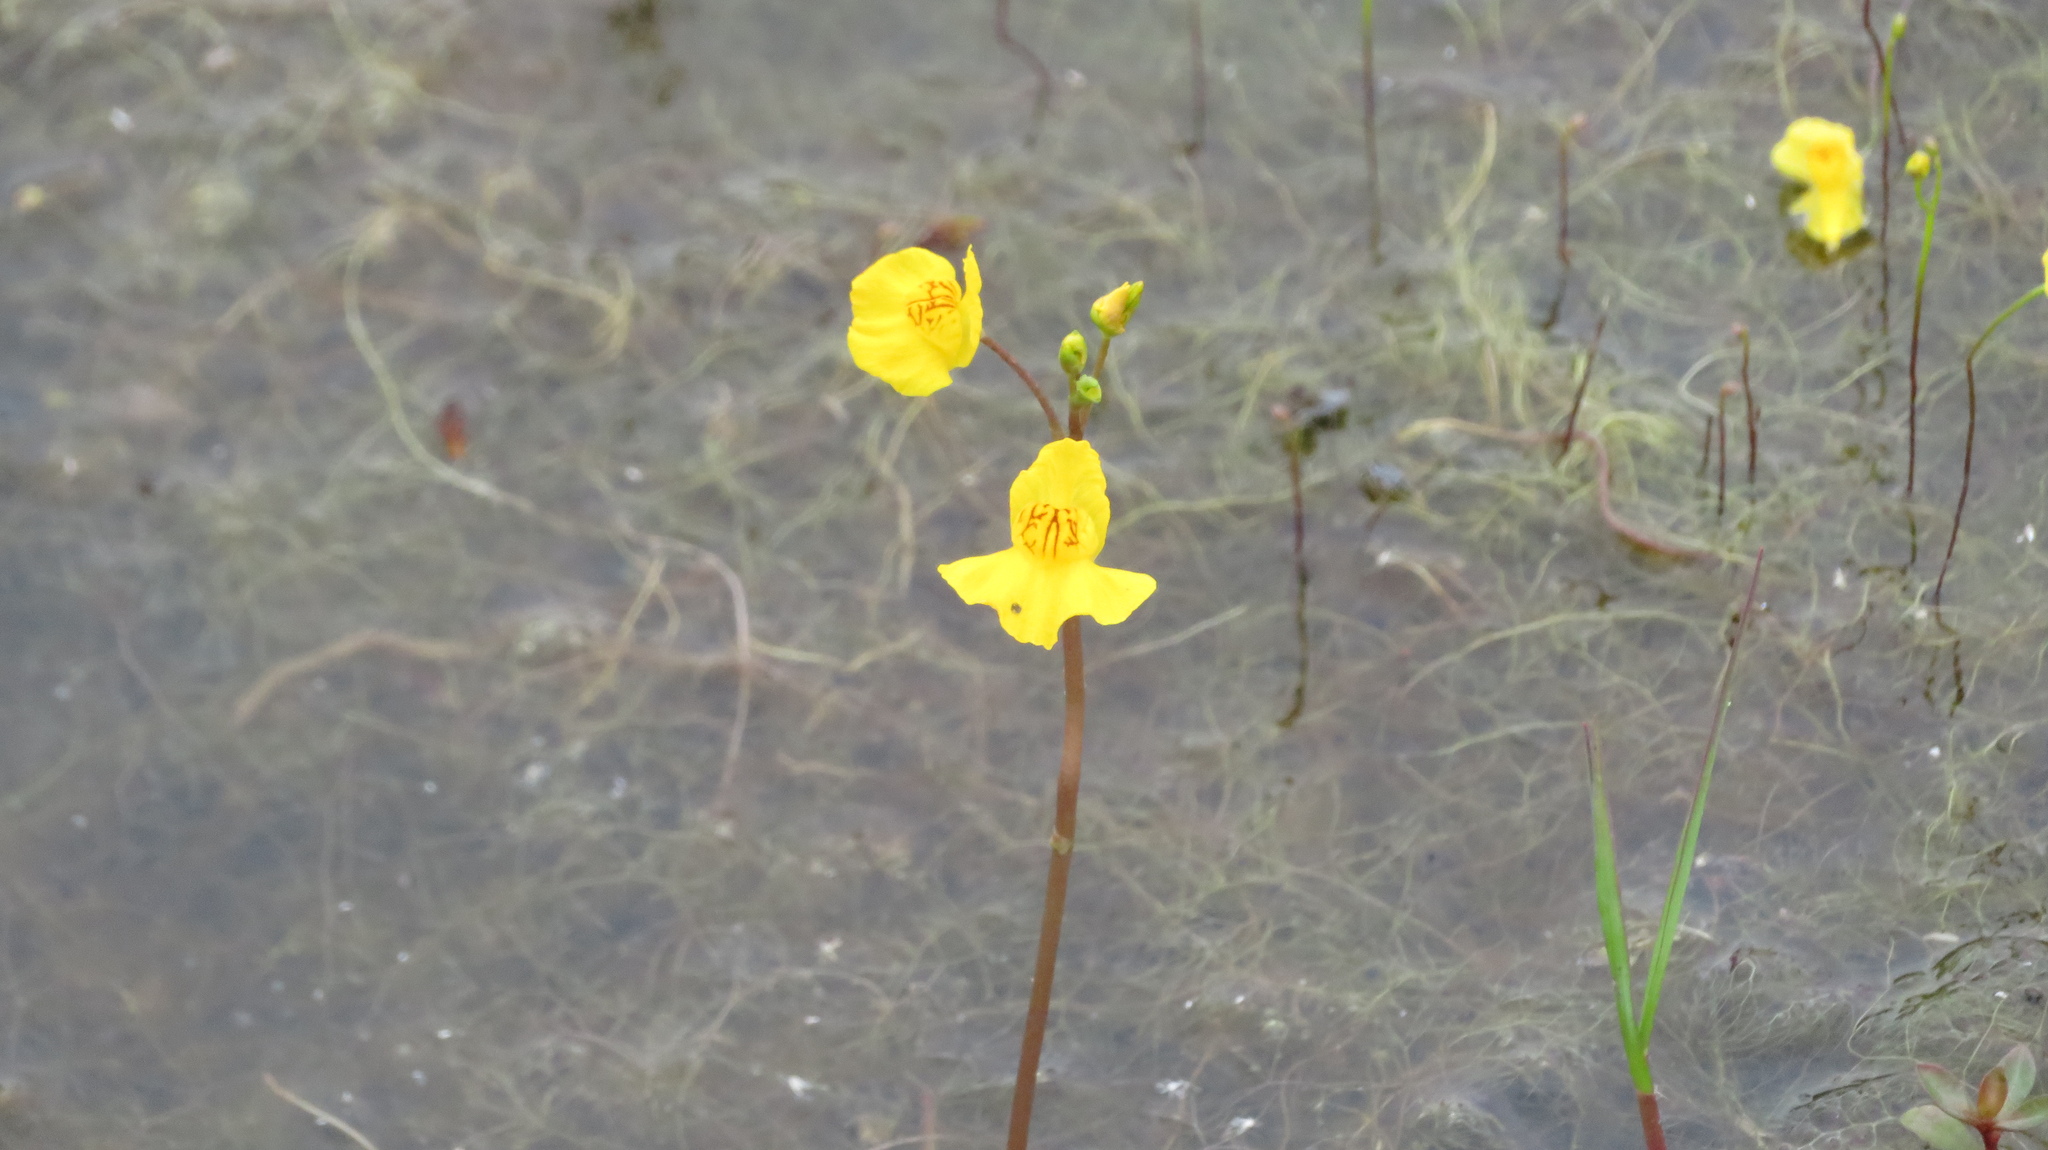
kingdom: Plantae
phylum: Tracheophyta
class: Magnoliopsida
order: Lamiales
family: Lentibulariaceae
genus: Utricularia
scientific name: Utricularia australis
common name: Bladderwort
